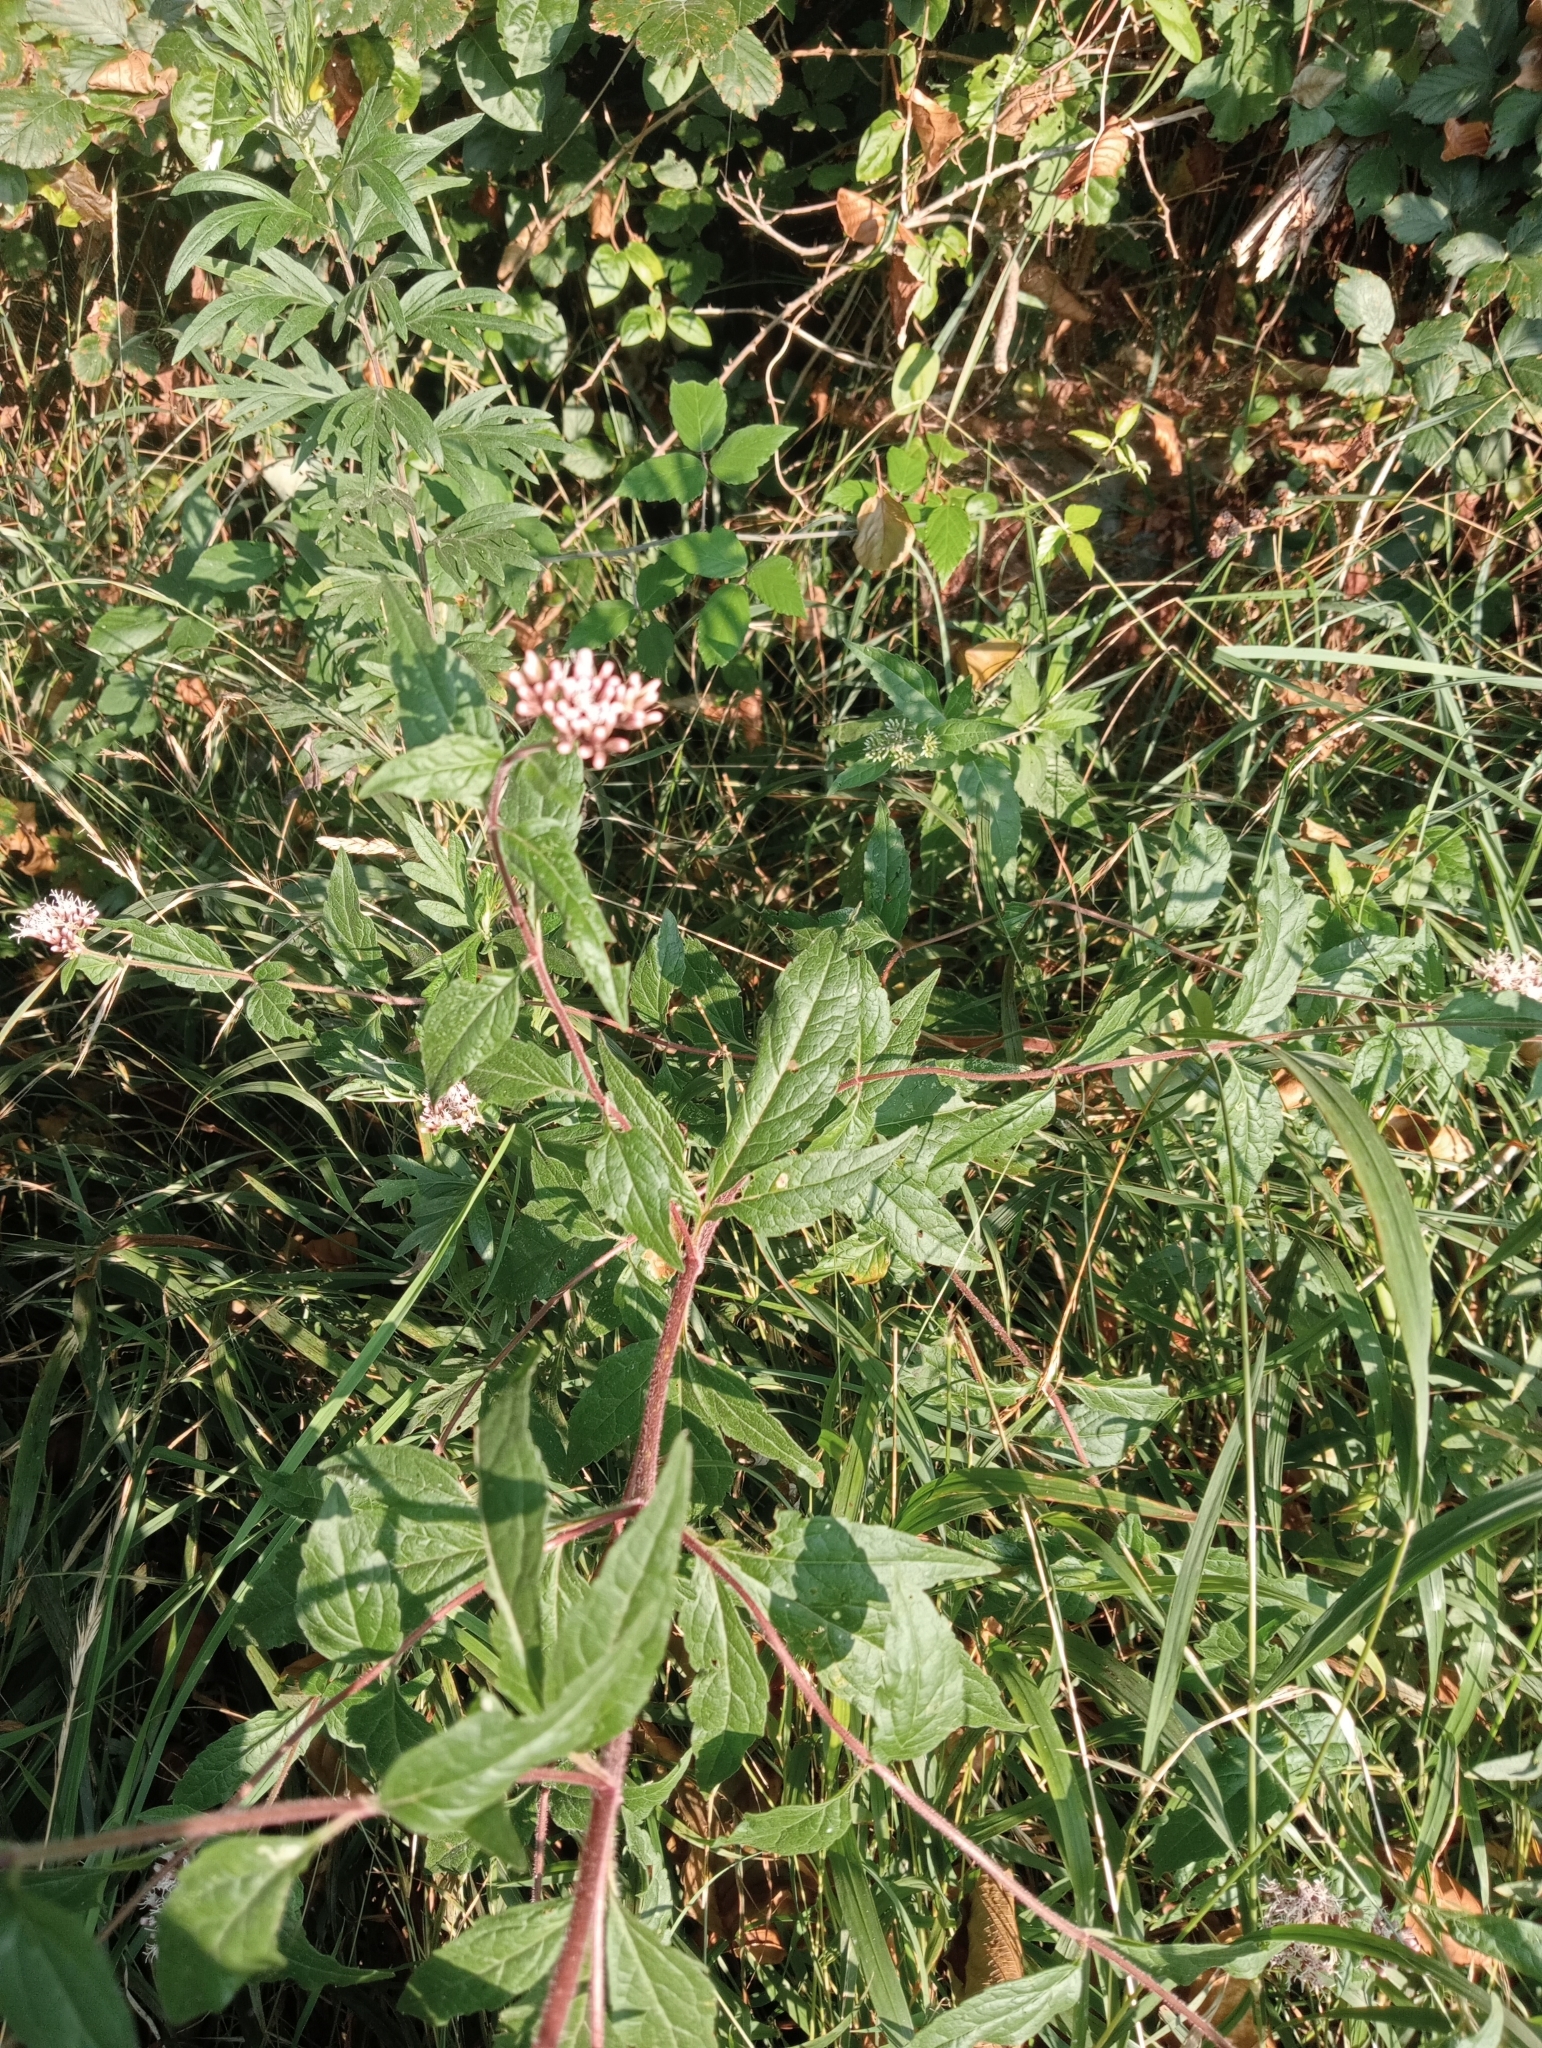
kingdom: Plantae
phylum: Tracheophyta
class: Magnoliopsida
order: Asterales
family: Asteraceae
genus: Eupatorium
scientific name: Eupatorium cannabinum
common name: Hemp-agrimony
